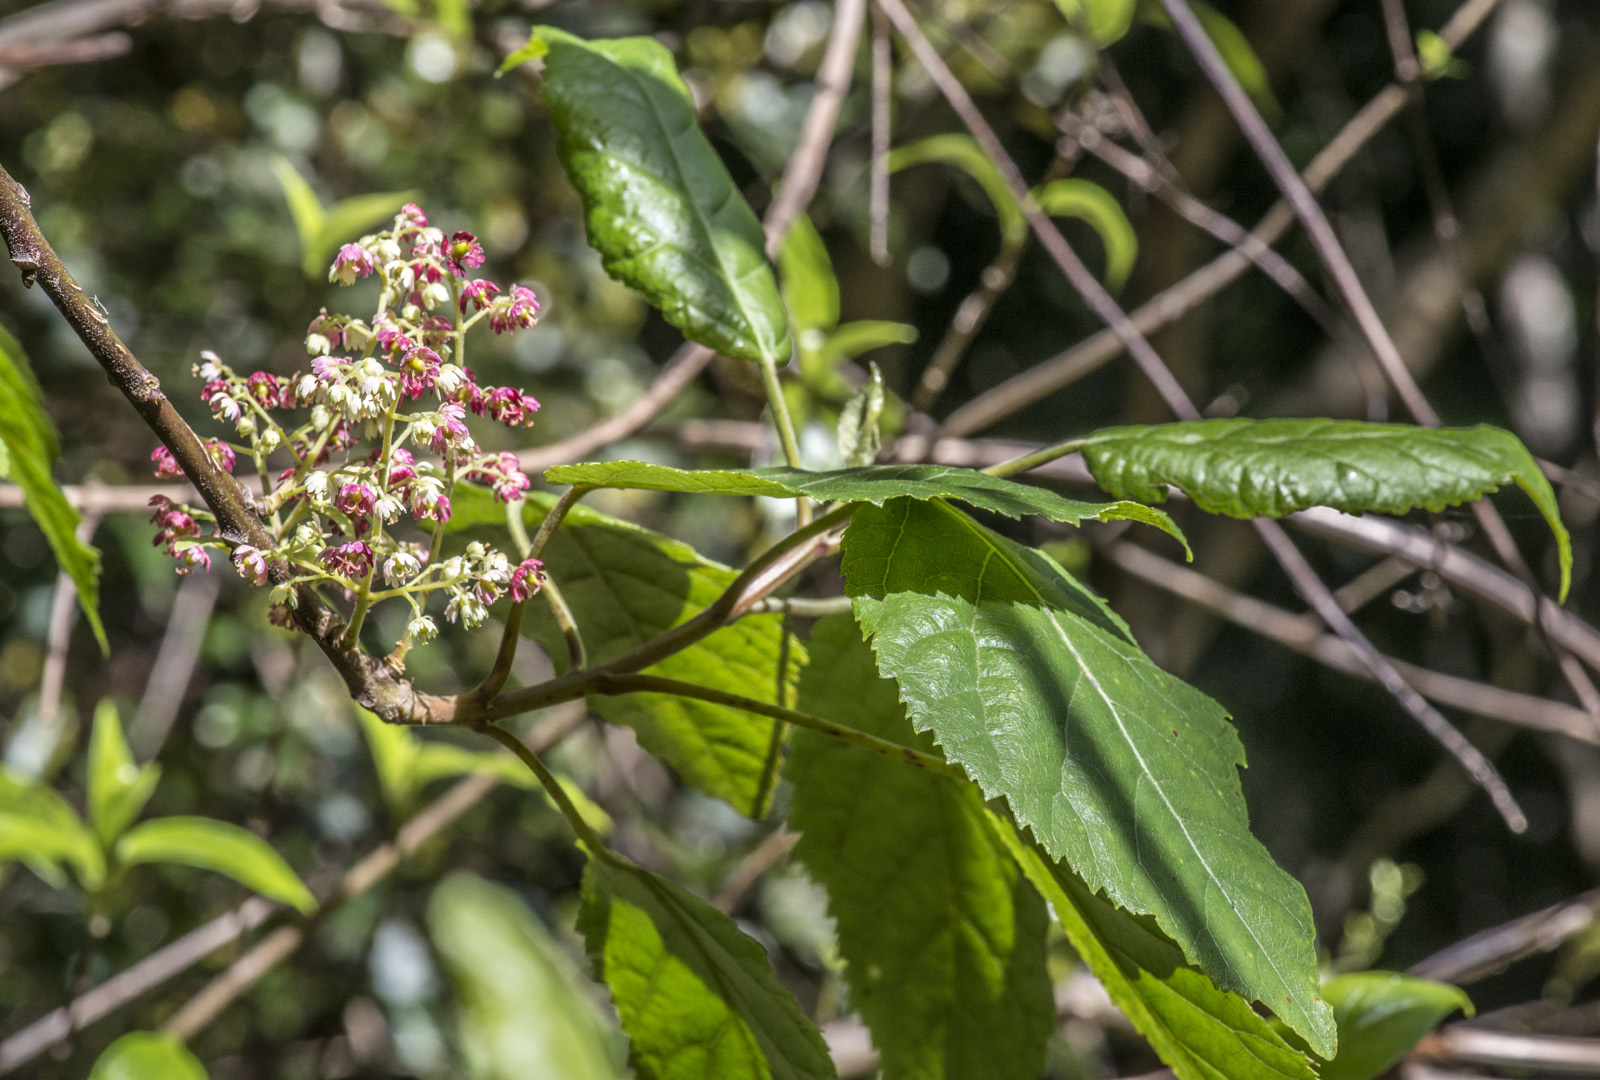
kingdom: Plantae
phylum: Tracheophyta
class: Magnoliopsida
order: Oxalidales
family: Elaeocarpaceae
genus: Aristotelia
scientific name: Aristotelia serrata
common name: New zealand wineberry
